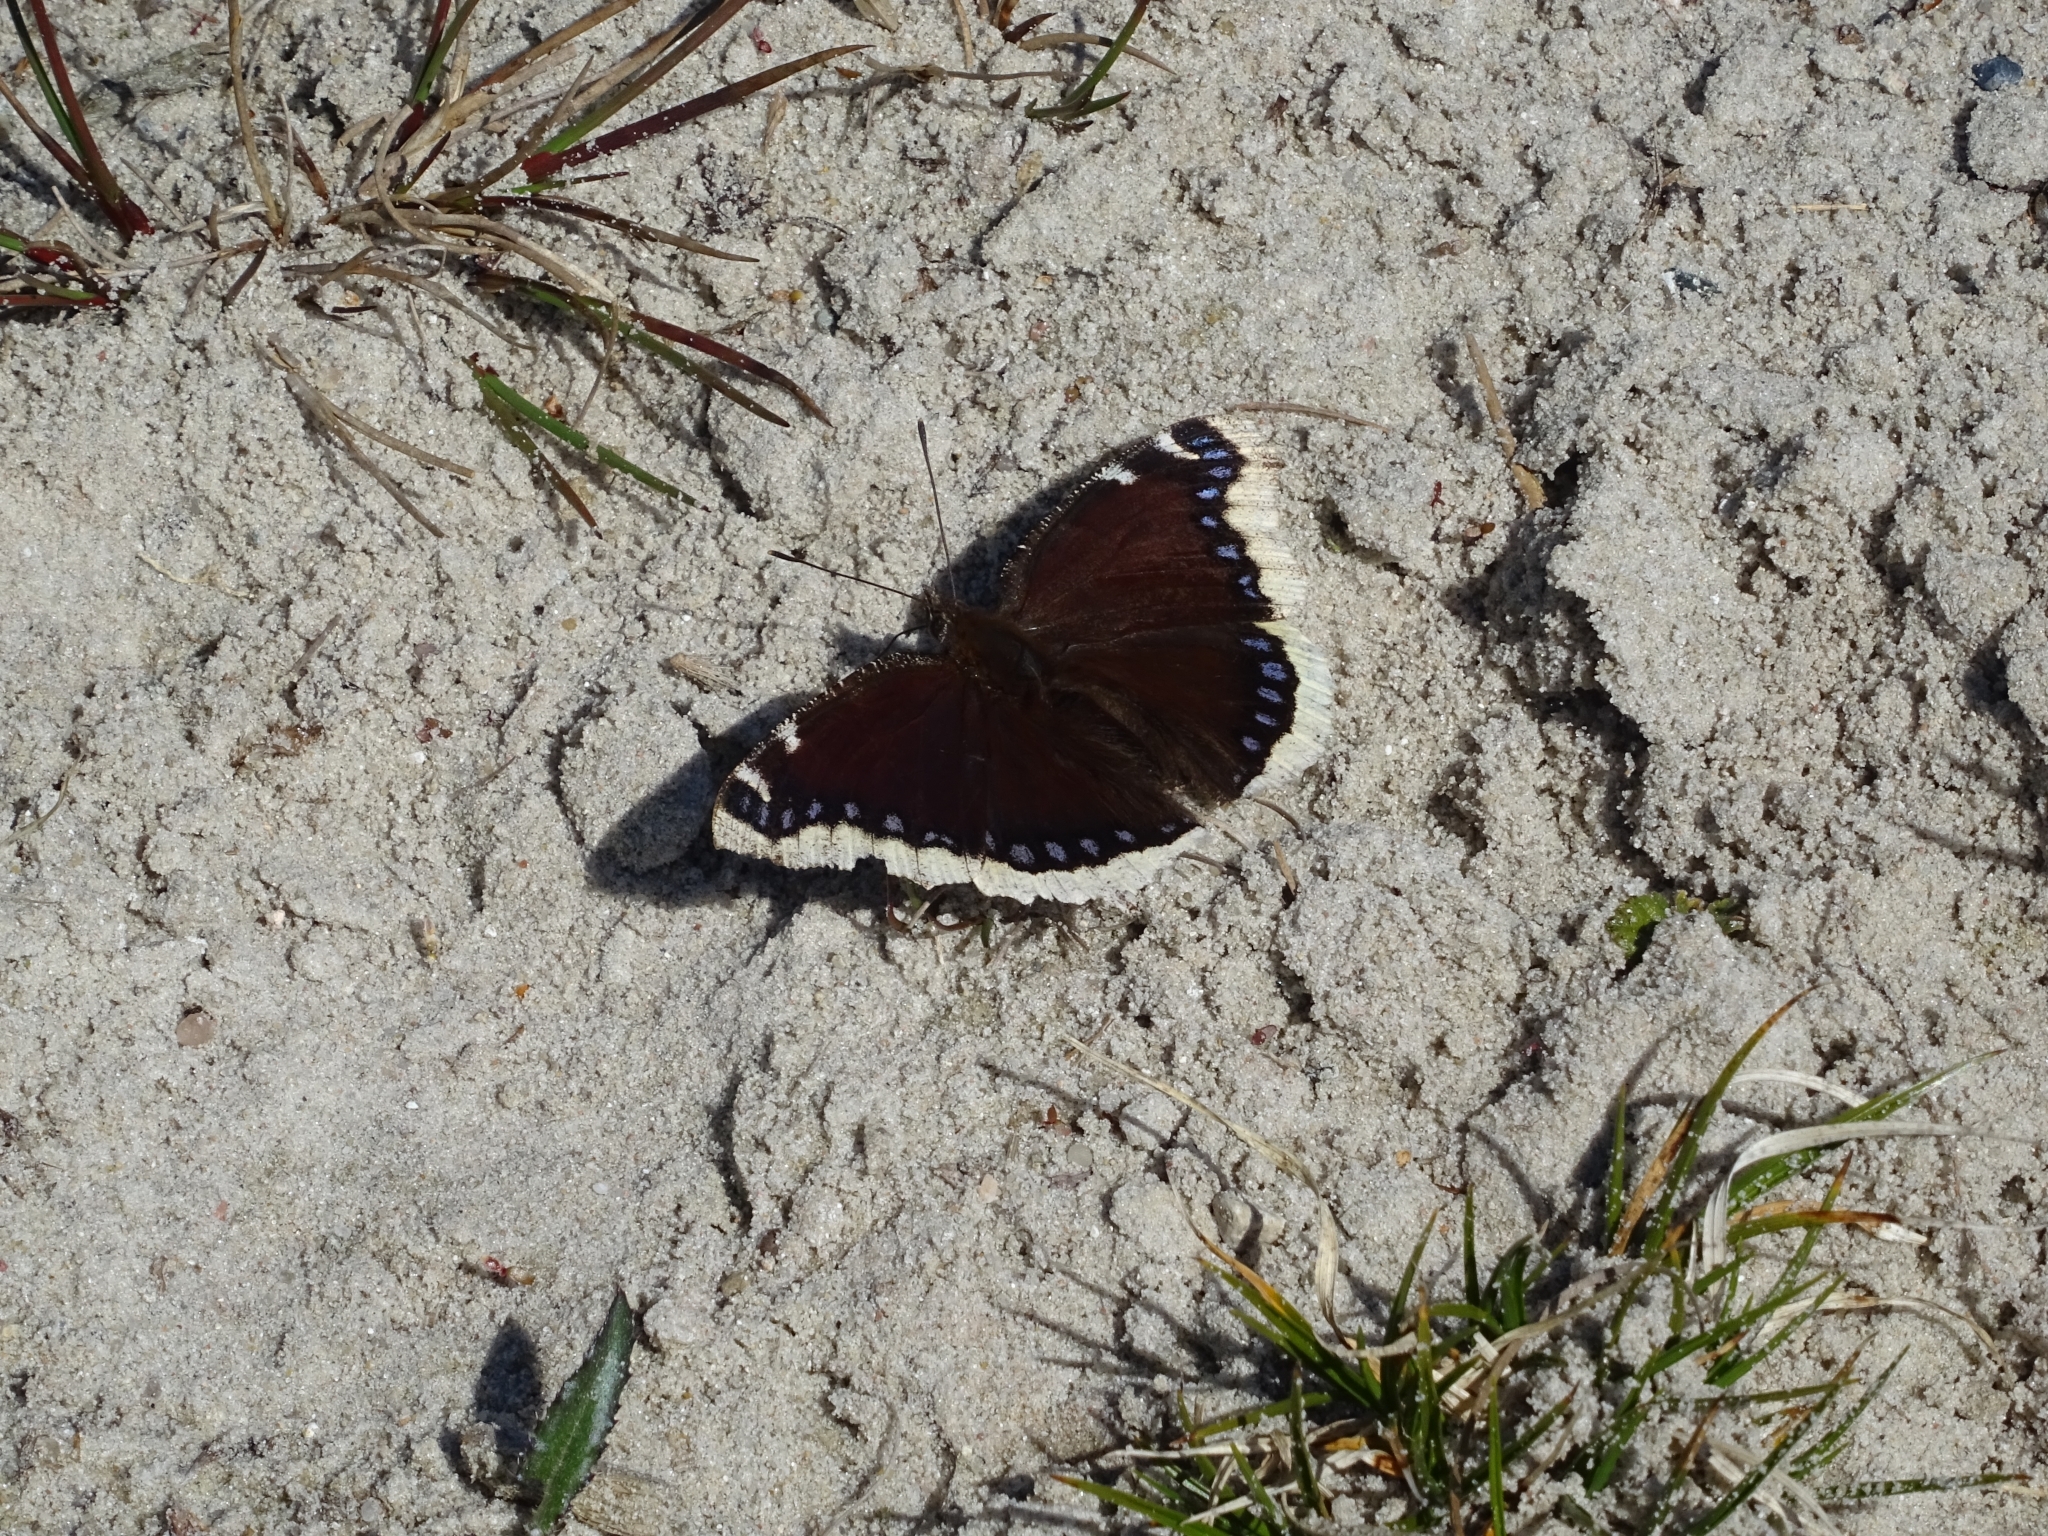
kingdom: Animalia
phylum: Arthropoda
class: Insecta
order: Lepidoptera
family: Nymphalidae
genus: Nymphalis
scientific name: Nymphalis antiopa
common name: Camberwell beauty
